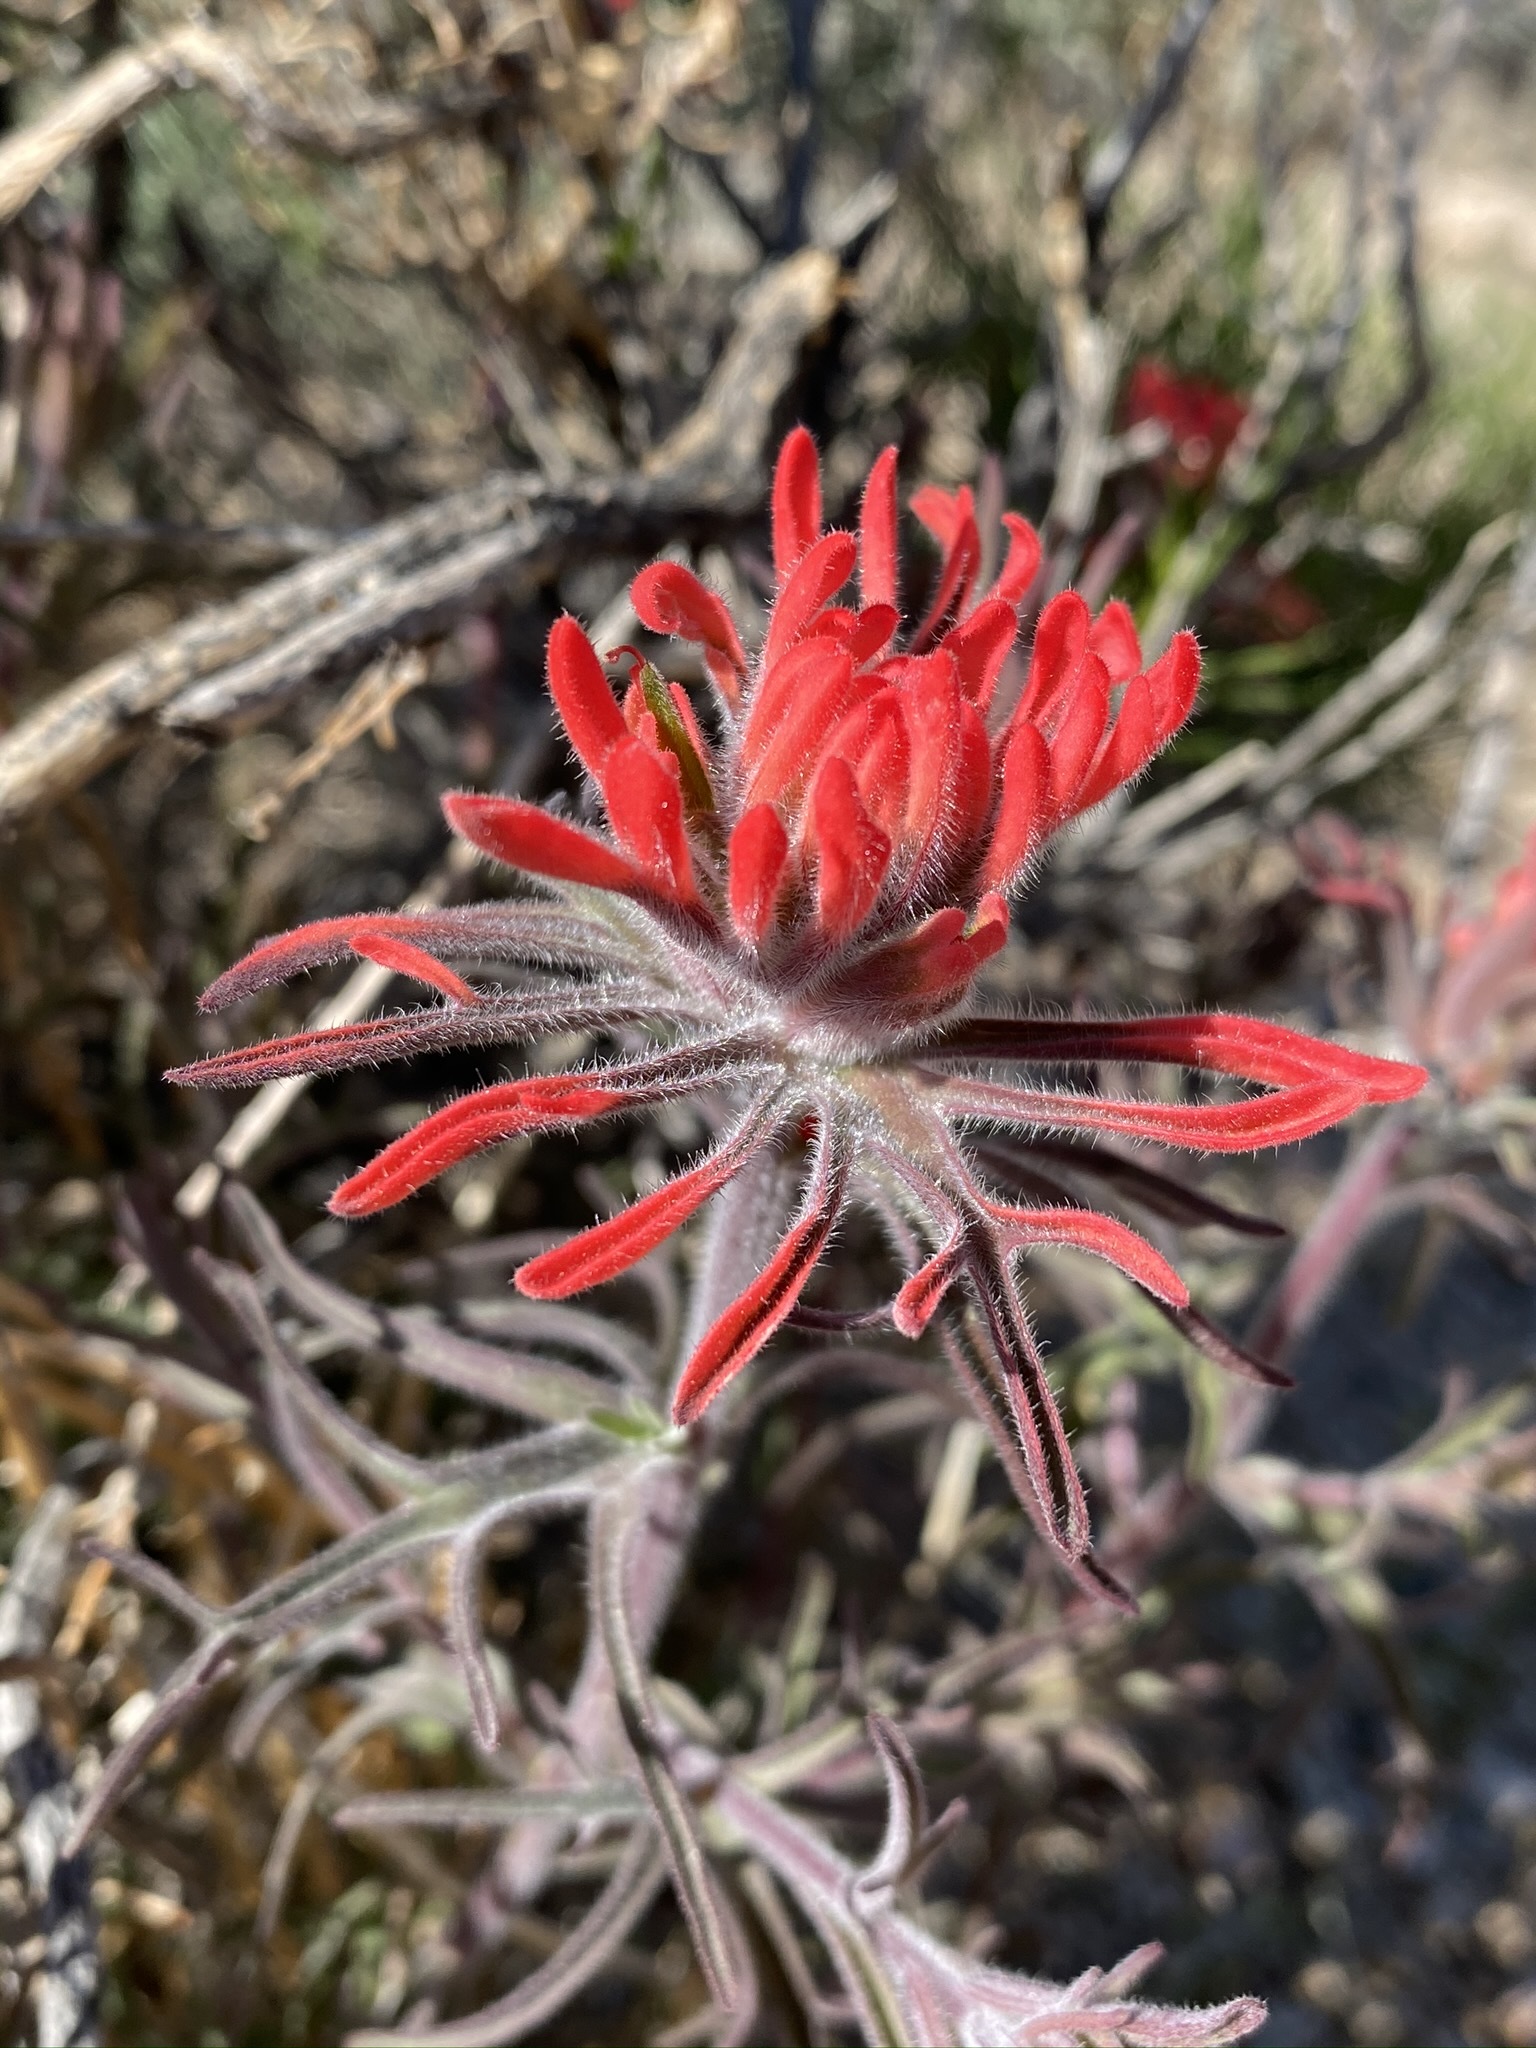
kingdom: Plantae
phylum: Tracheophyta
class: Magnoliopsida
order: Lamiales
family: Orobanchaceae
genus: Castilleja
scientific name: Castilleja chromosa
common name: Desert paintbrush
